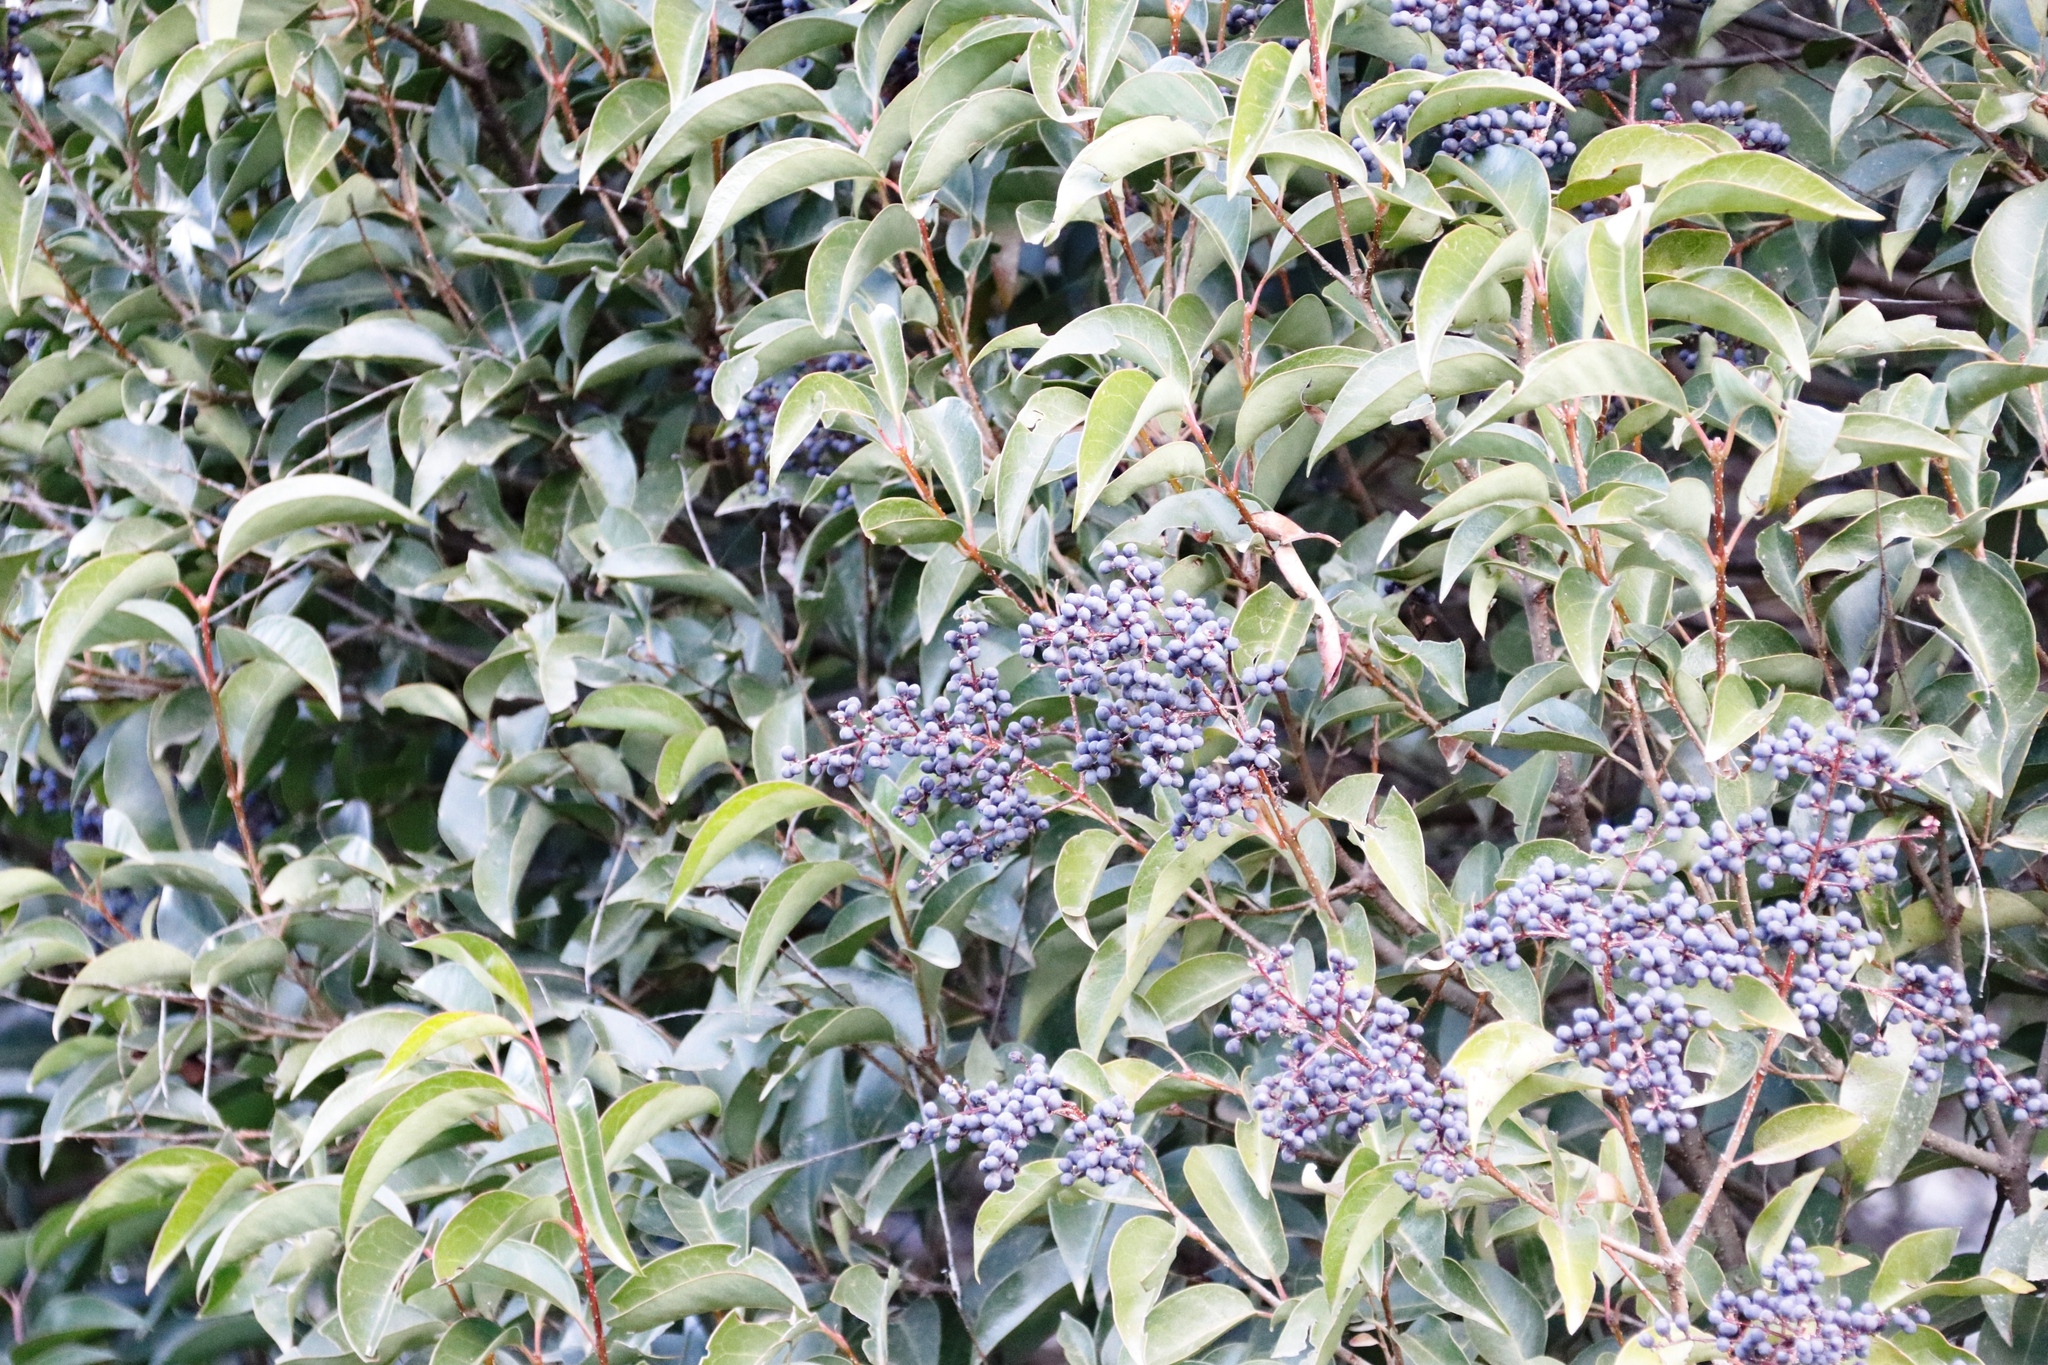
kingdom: Plantae
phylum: Tracheophyta
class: Magnoliopsida
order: Lamiales
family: Oleaceae
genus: Ligustrum
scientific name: Ligustrum lucidum
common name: Glossy privet
